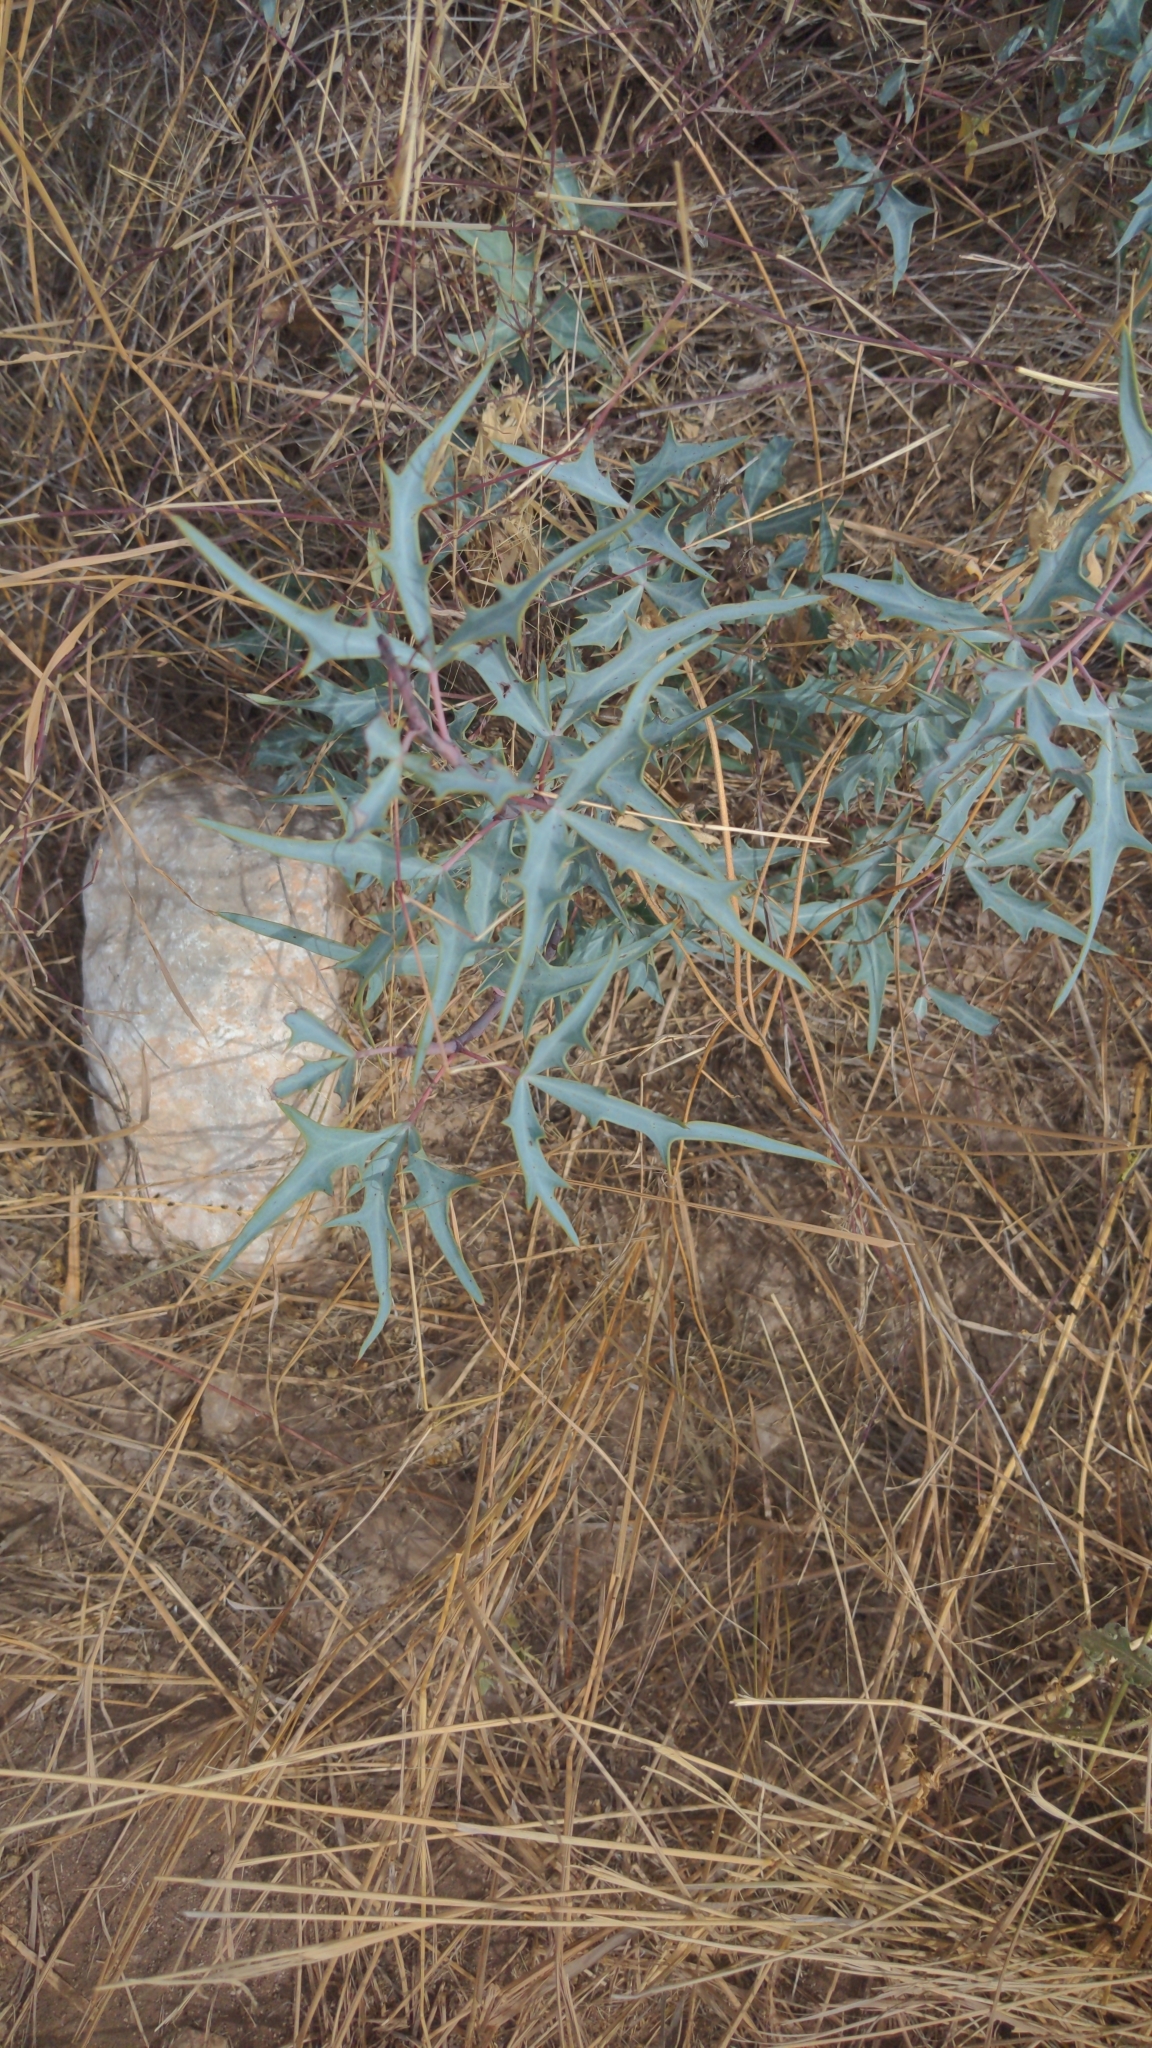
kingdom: Plantae
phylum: Tracheophyta
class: Magnoliopsida
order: Ranunculales
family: Berberidaceae
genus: Alloberberis
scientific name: Alloberberis trifoliolata
